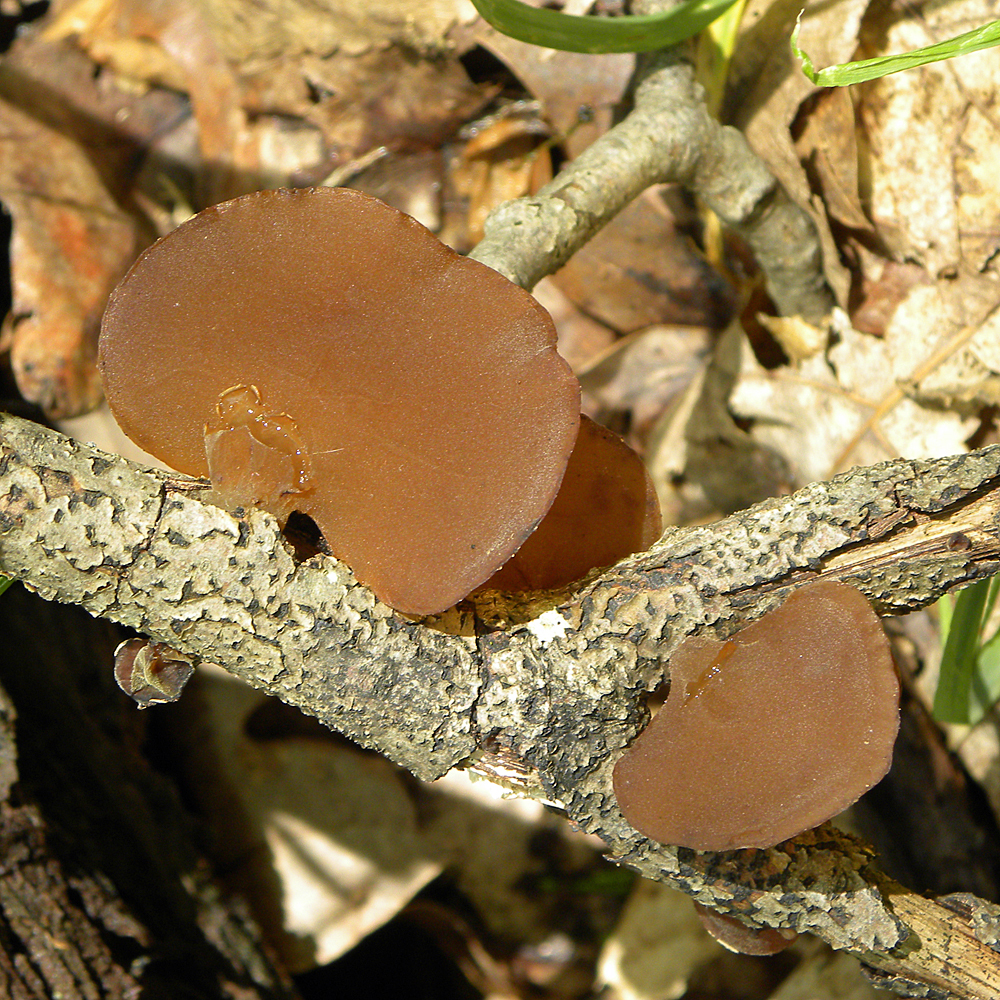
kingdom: Fungi
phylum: Basidiomycota
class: Agaricomycetes
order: Auriculariales
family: Auriculariaceae
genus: Auricularia
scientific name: Auricularia americana
